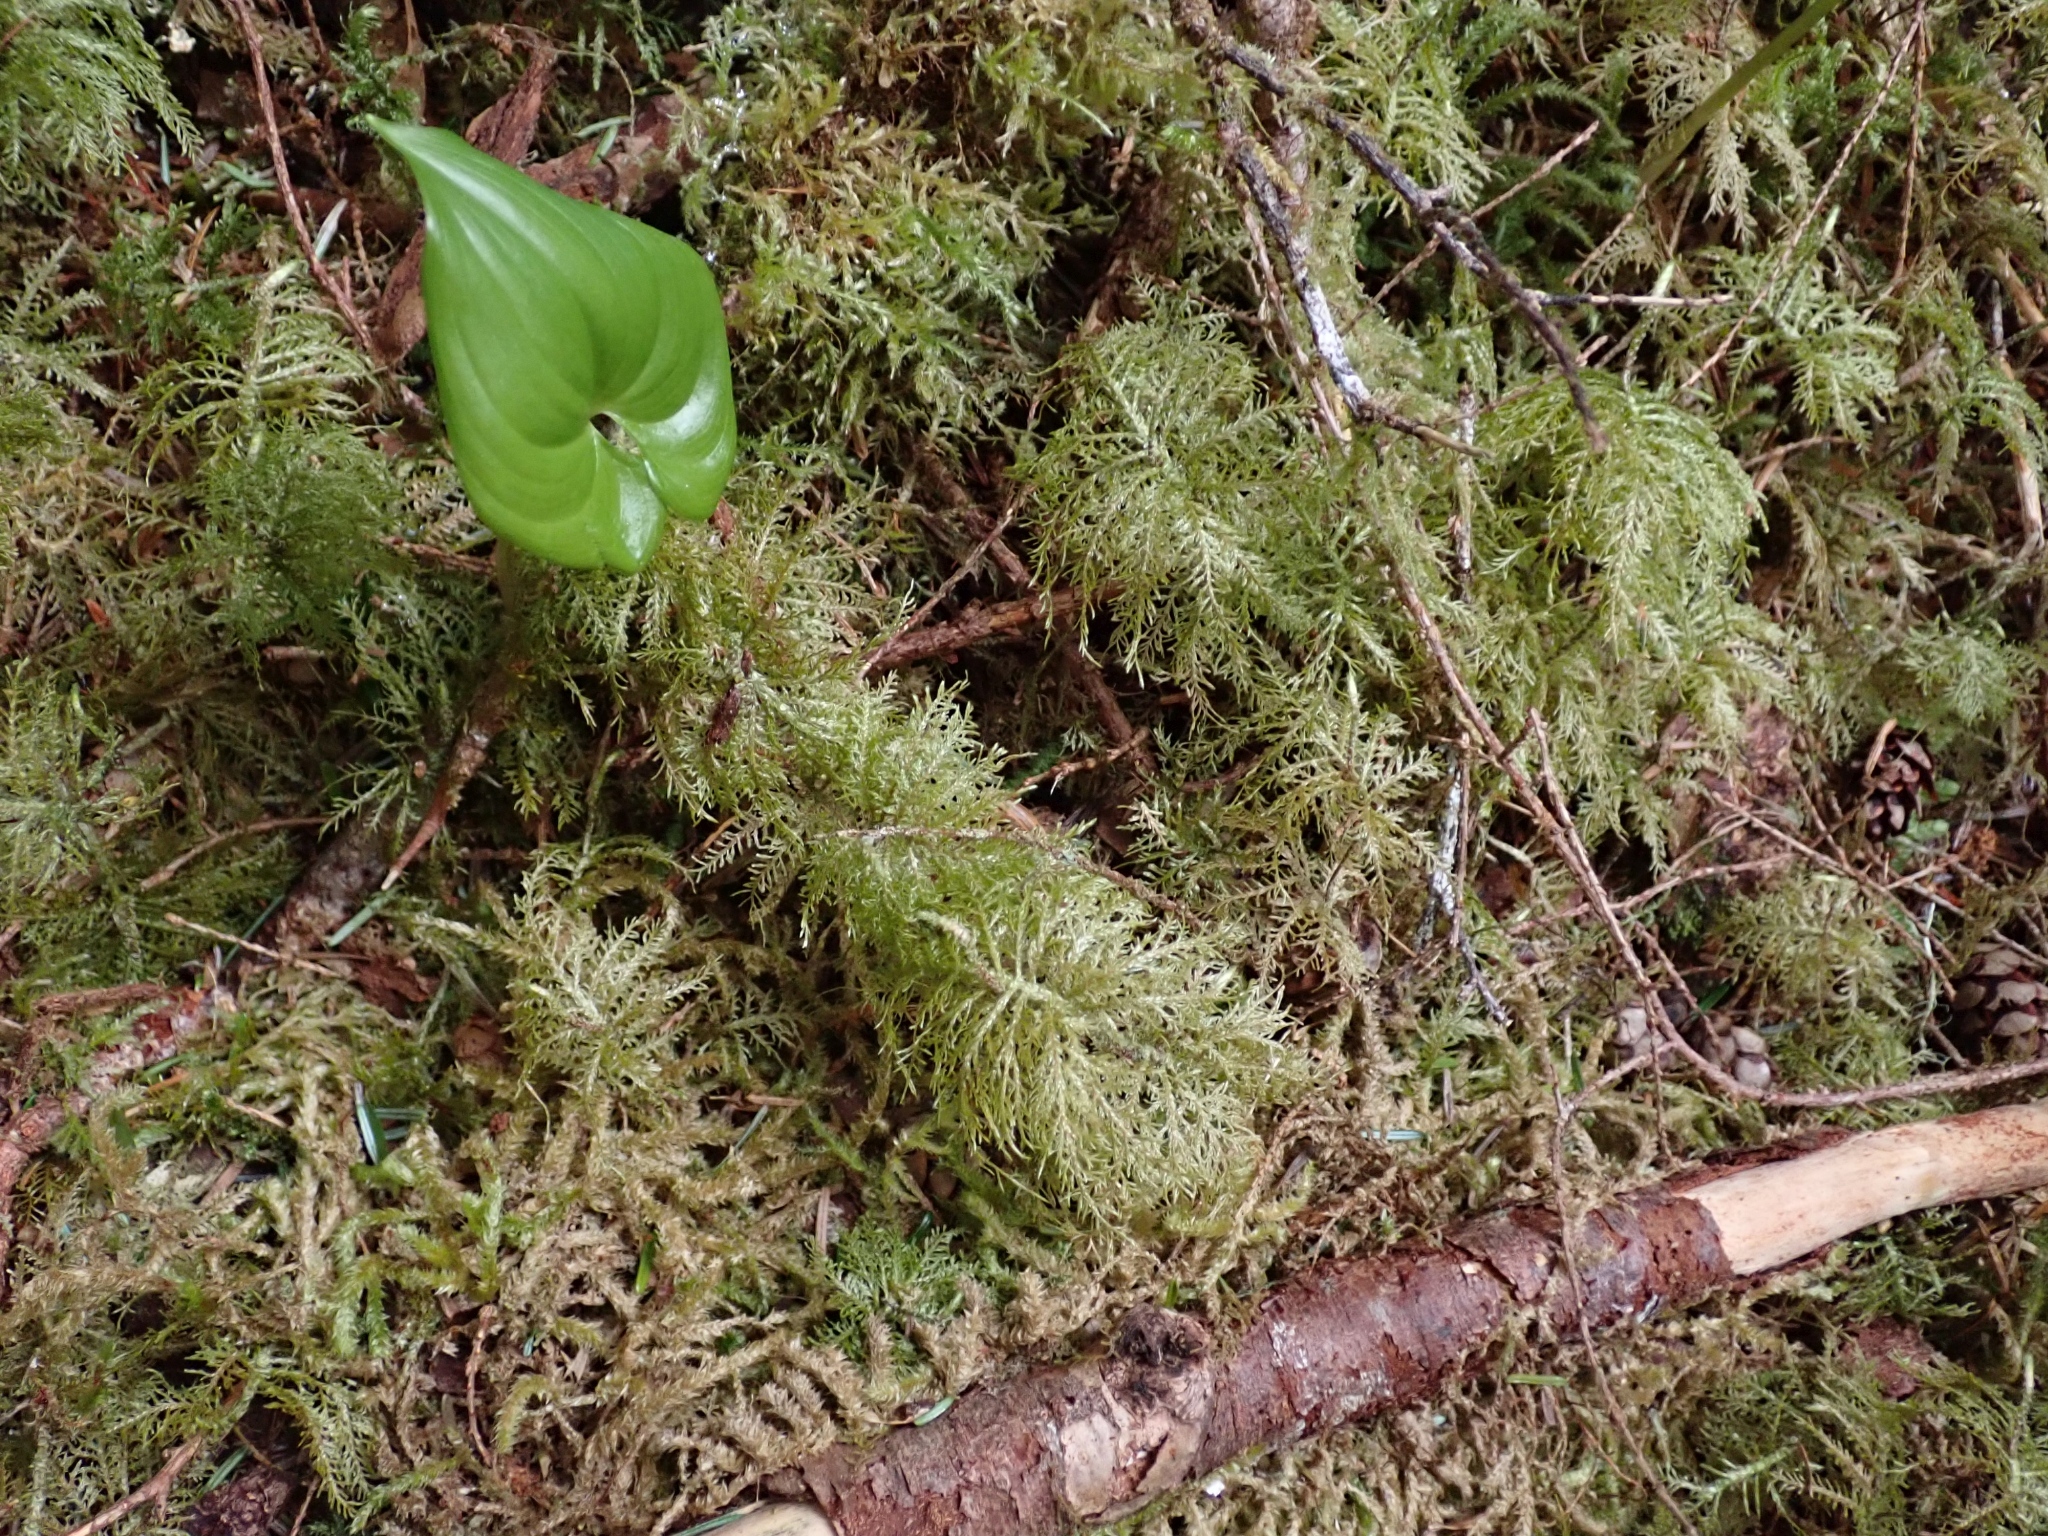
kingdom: Plantae
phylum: Bryophyta
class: Bryopsida
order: Hypnales
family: Hylocomiaceae
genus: Hylocomium
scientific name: Hylocomium splendens
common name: Stairstep moss
